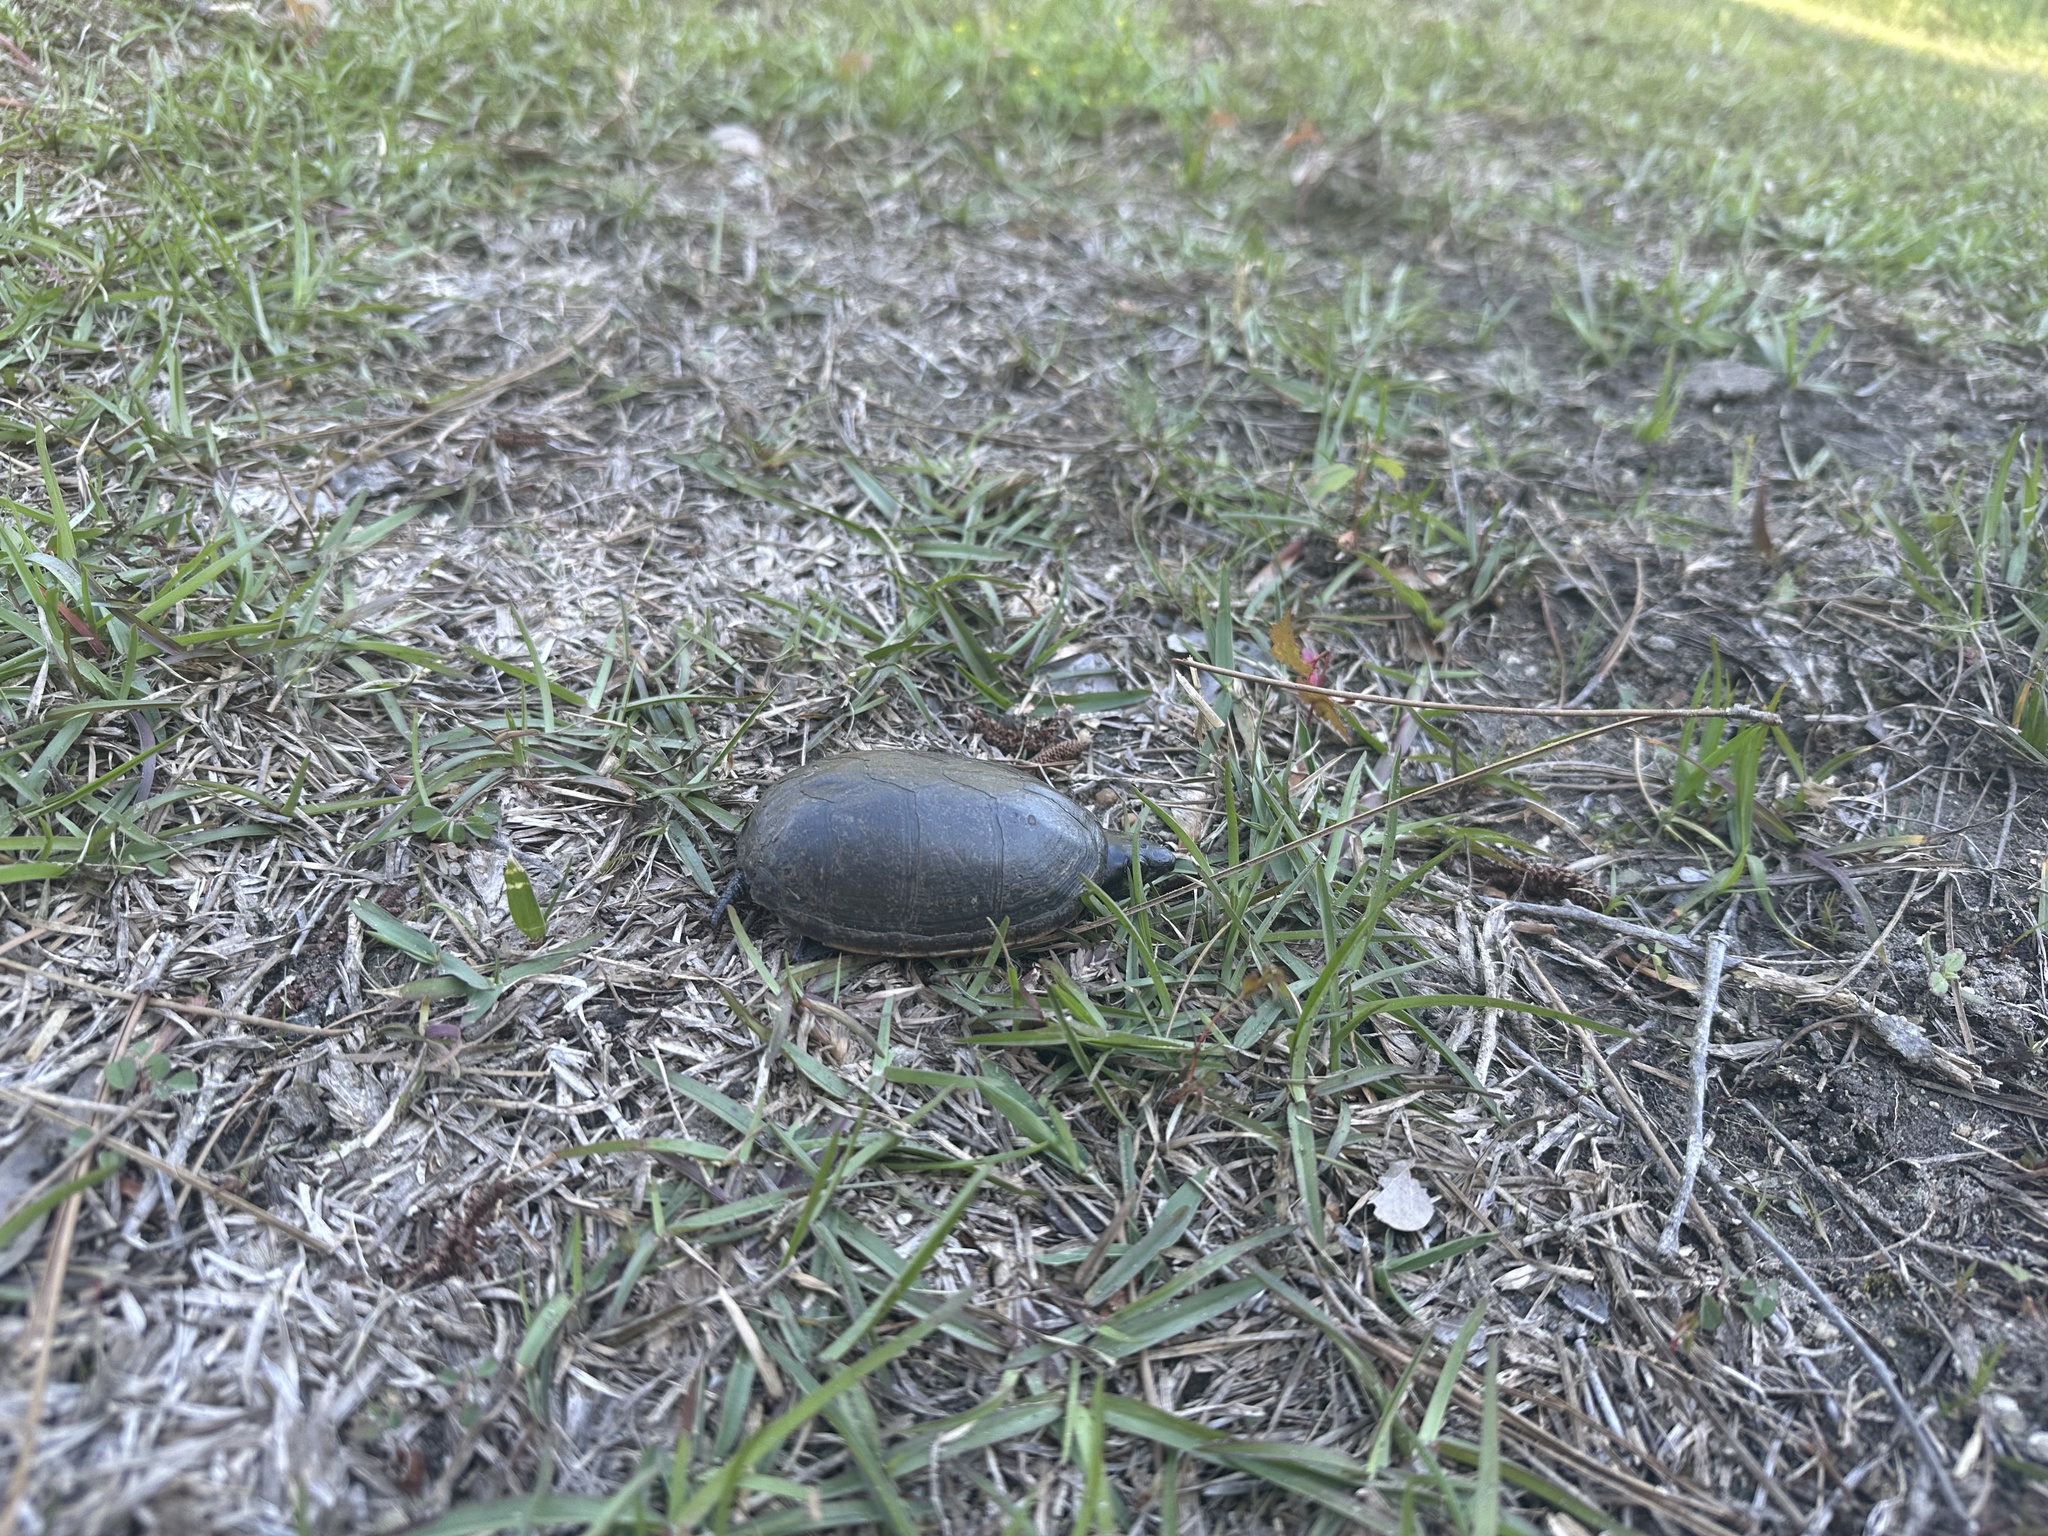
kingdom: Animalia
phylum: Chordata
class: Testudines
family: Kinosternidae
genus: Kinosternon
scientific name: Kinosternon baurii
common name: Striped mud turtle
